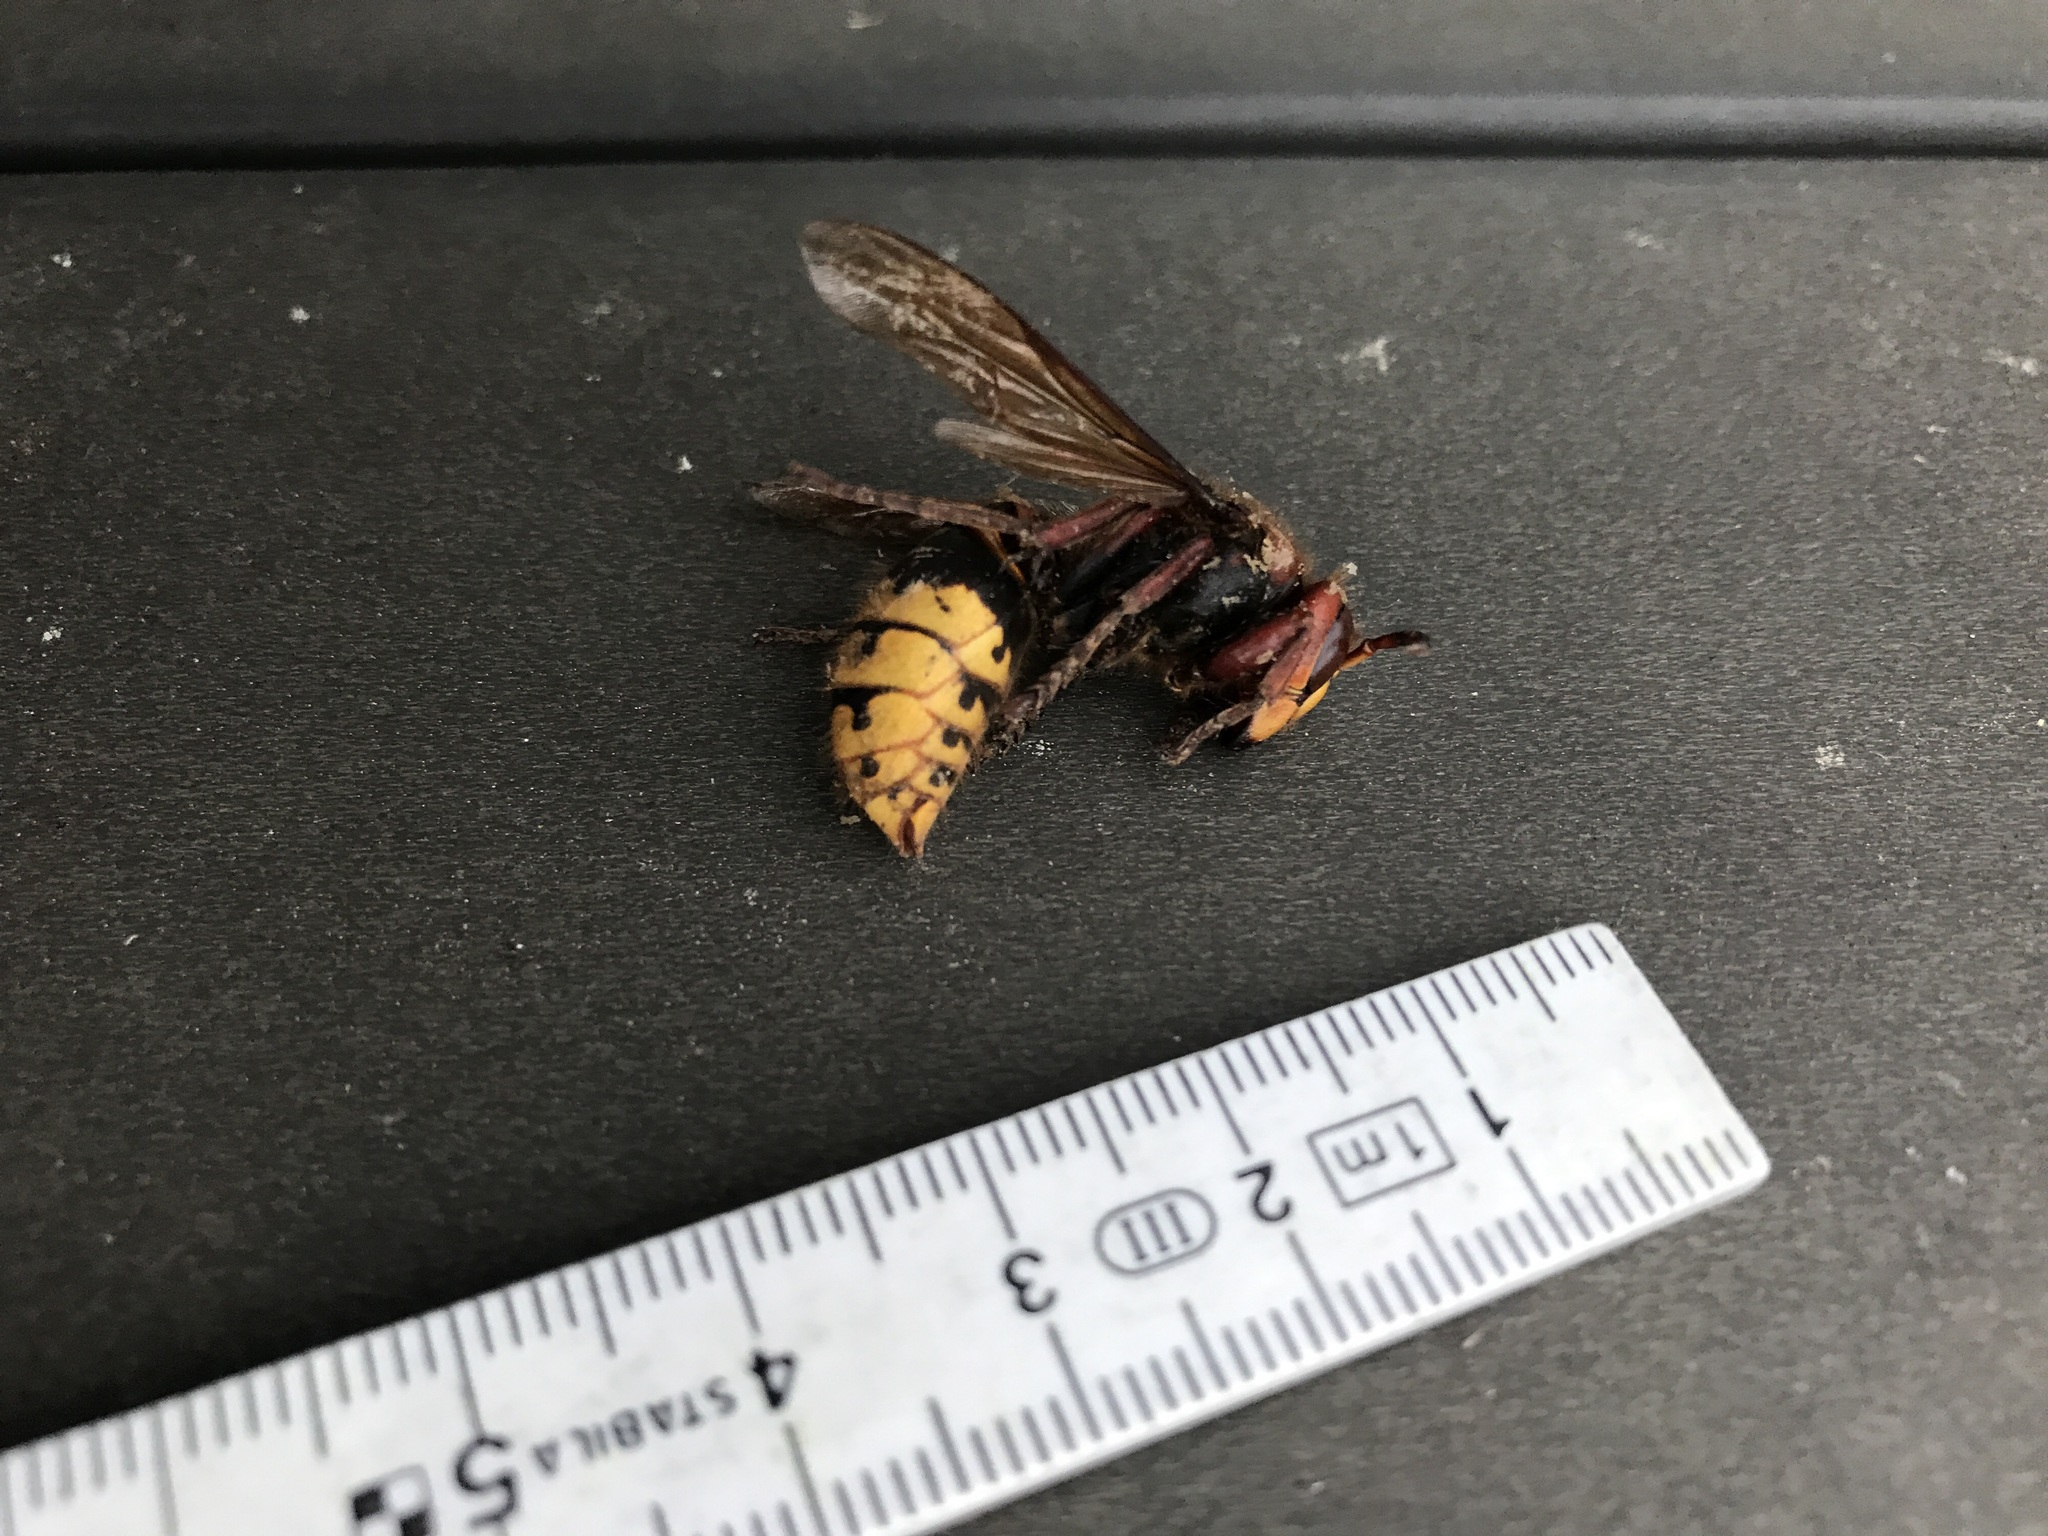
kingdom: Animalia
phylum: Arthropoda
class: Insecta
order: Hymenoptera
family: Vespidae
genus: Vespa
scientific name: Vespa crabro
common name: Hornet
